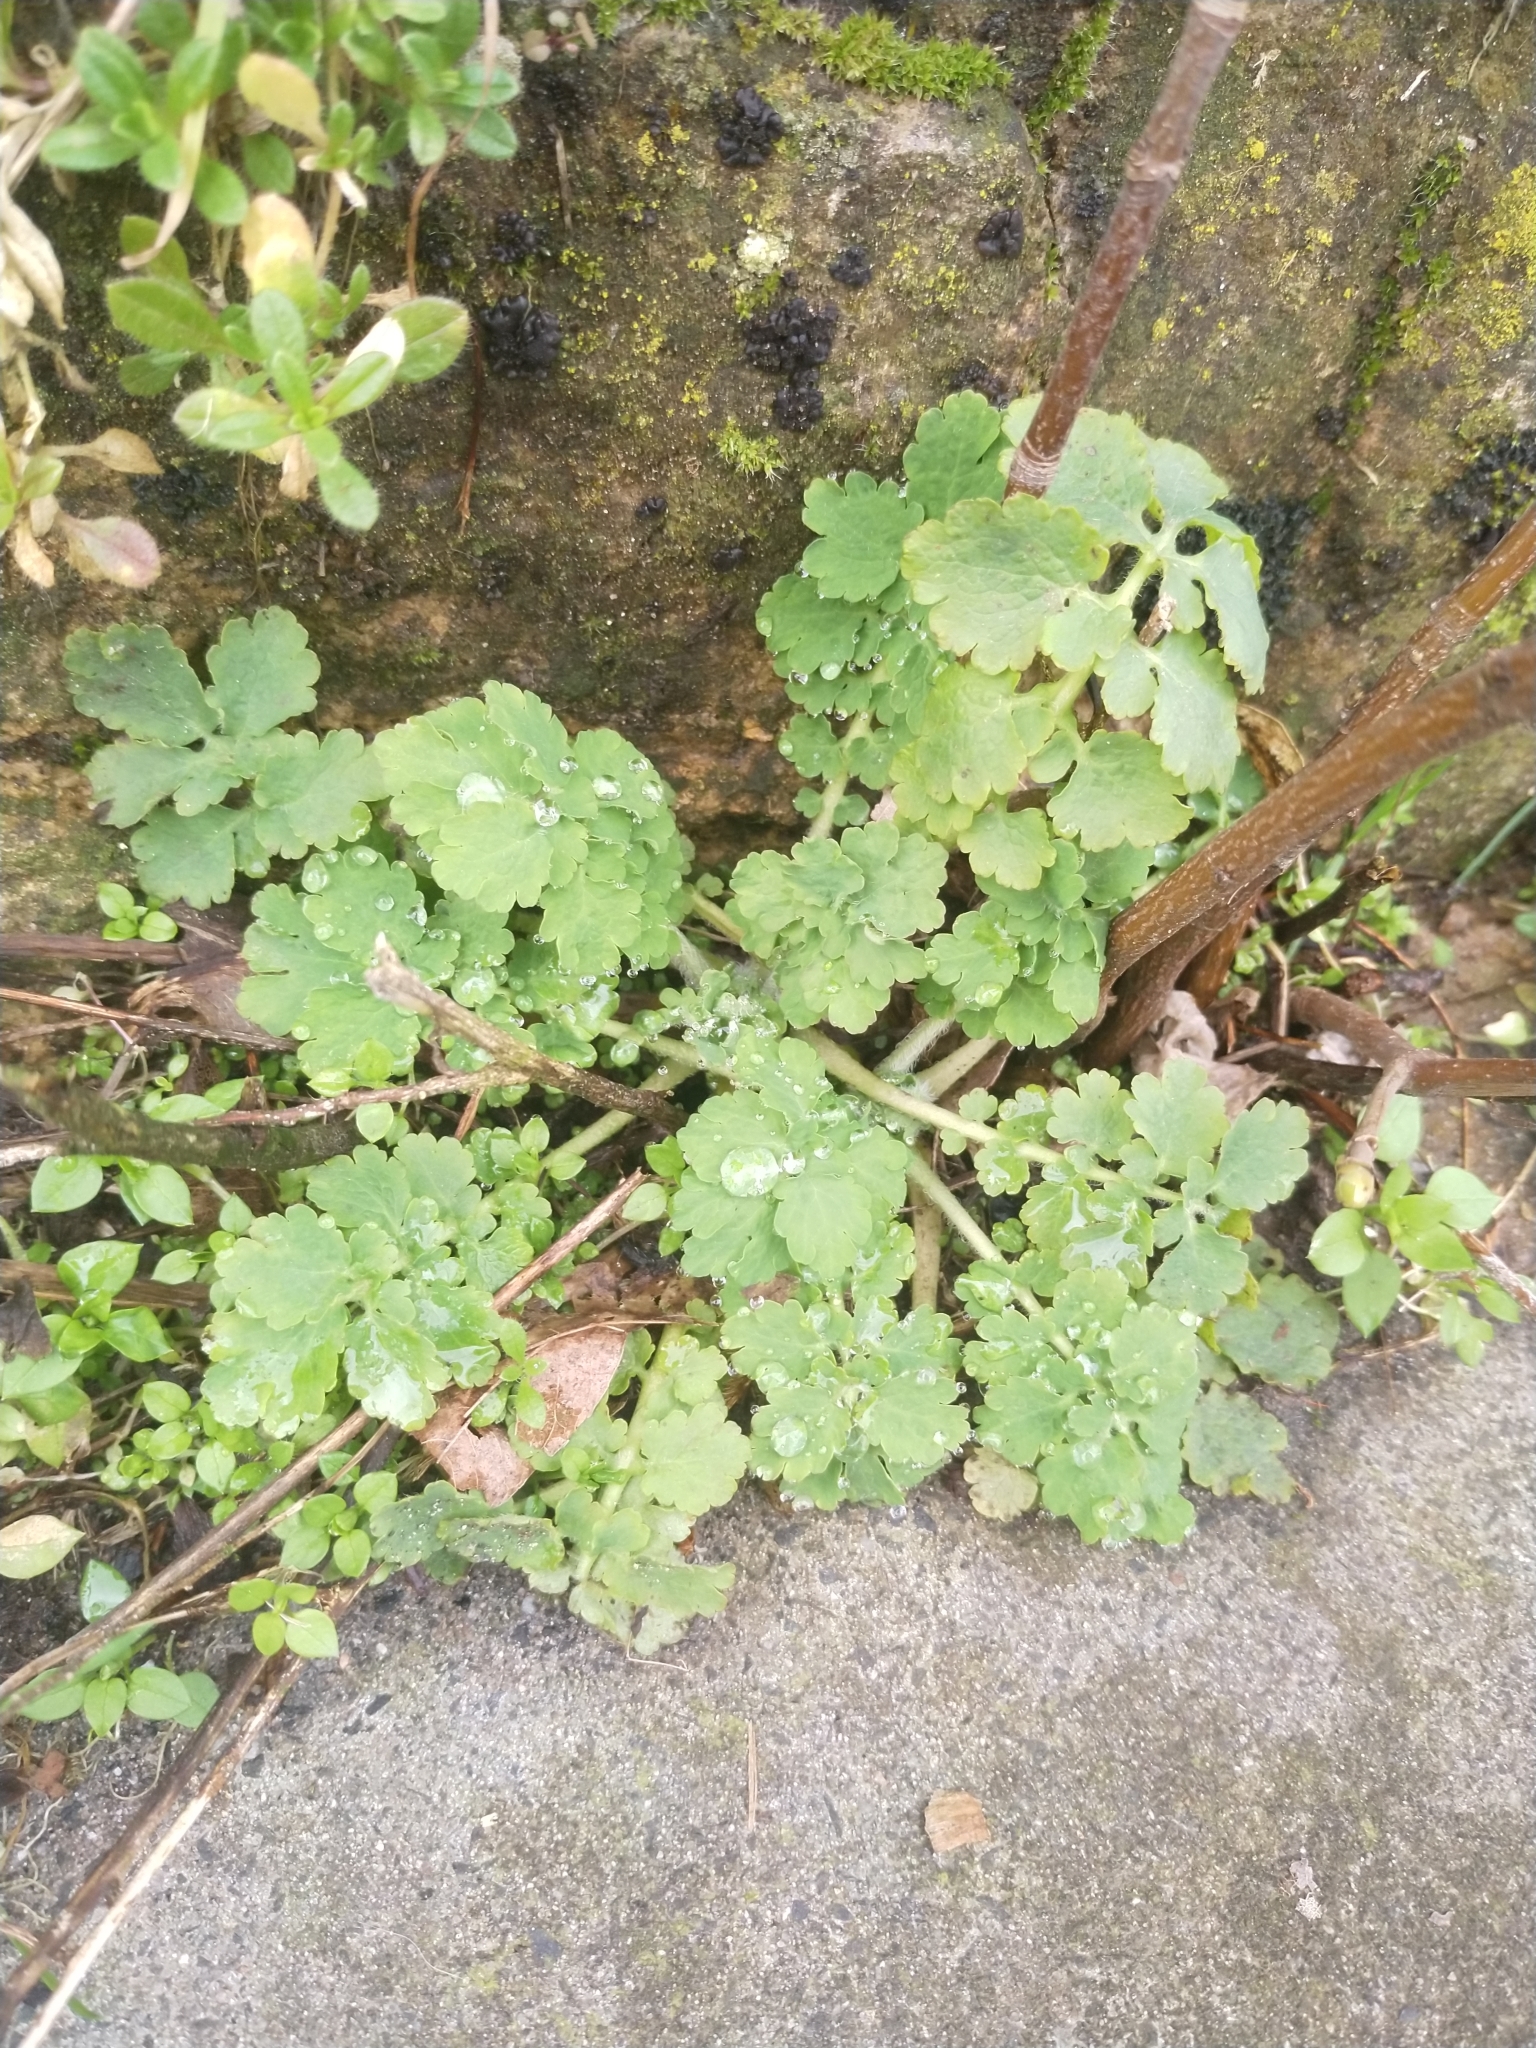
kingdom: Plantae
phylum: Tracheophyta
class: Magnoliopsida
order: Ranunculales
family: Papaveraceae
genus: Chelidonium
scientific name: Chelidonium majus
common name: Greater celandine
